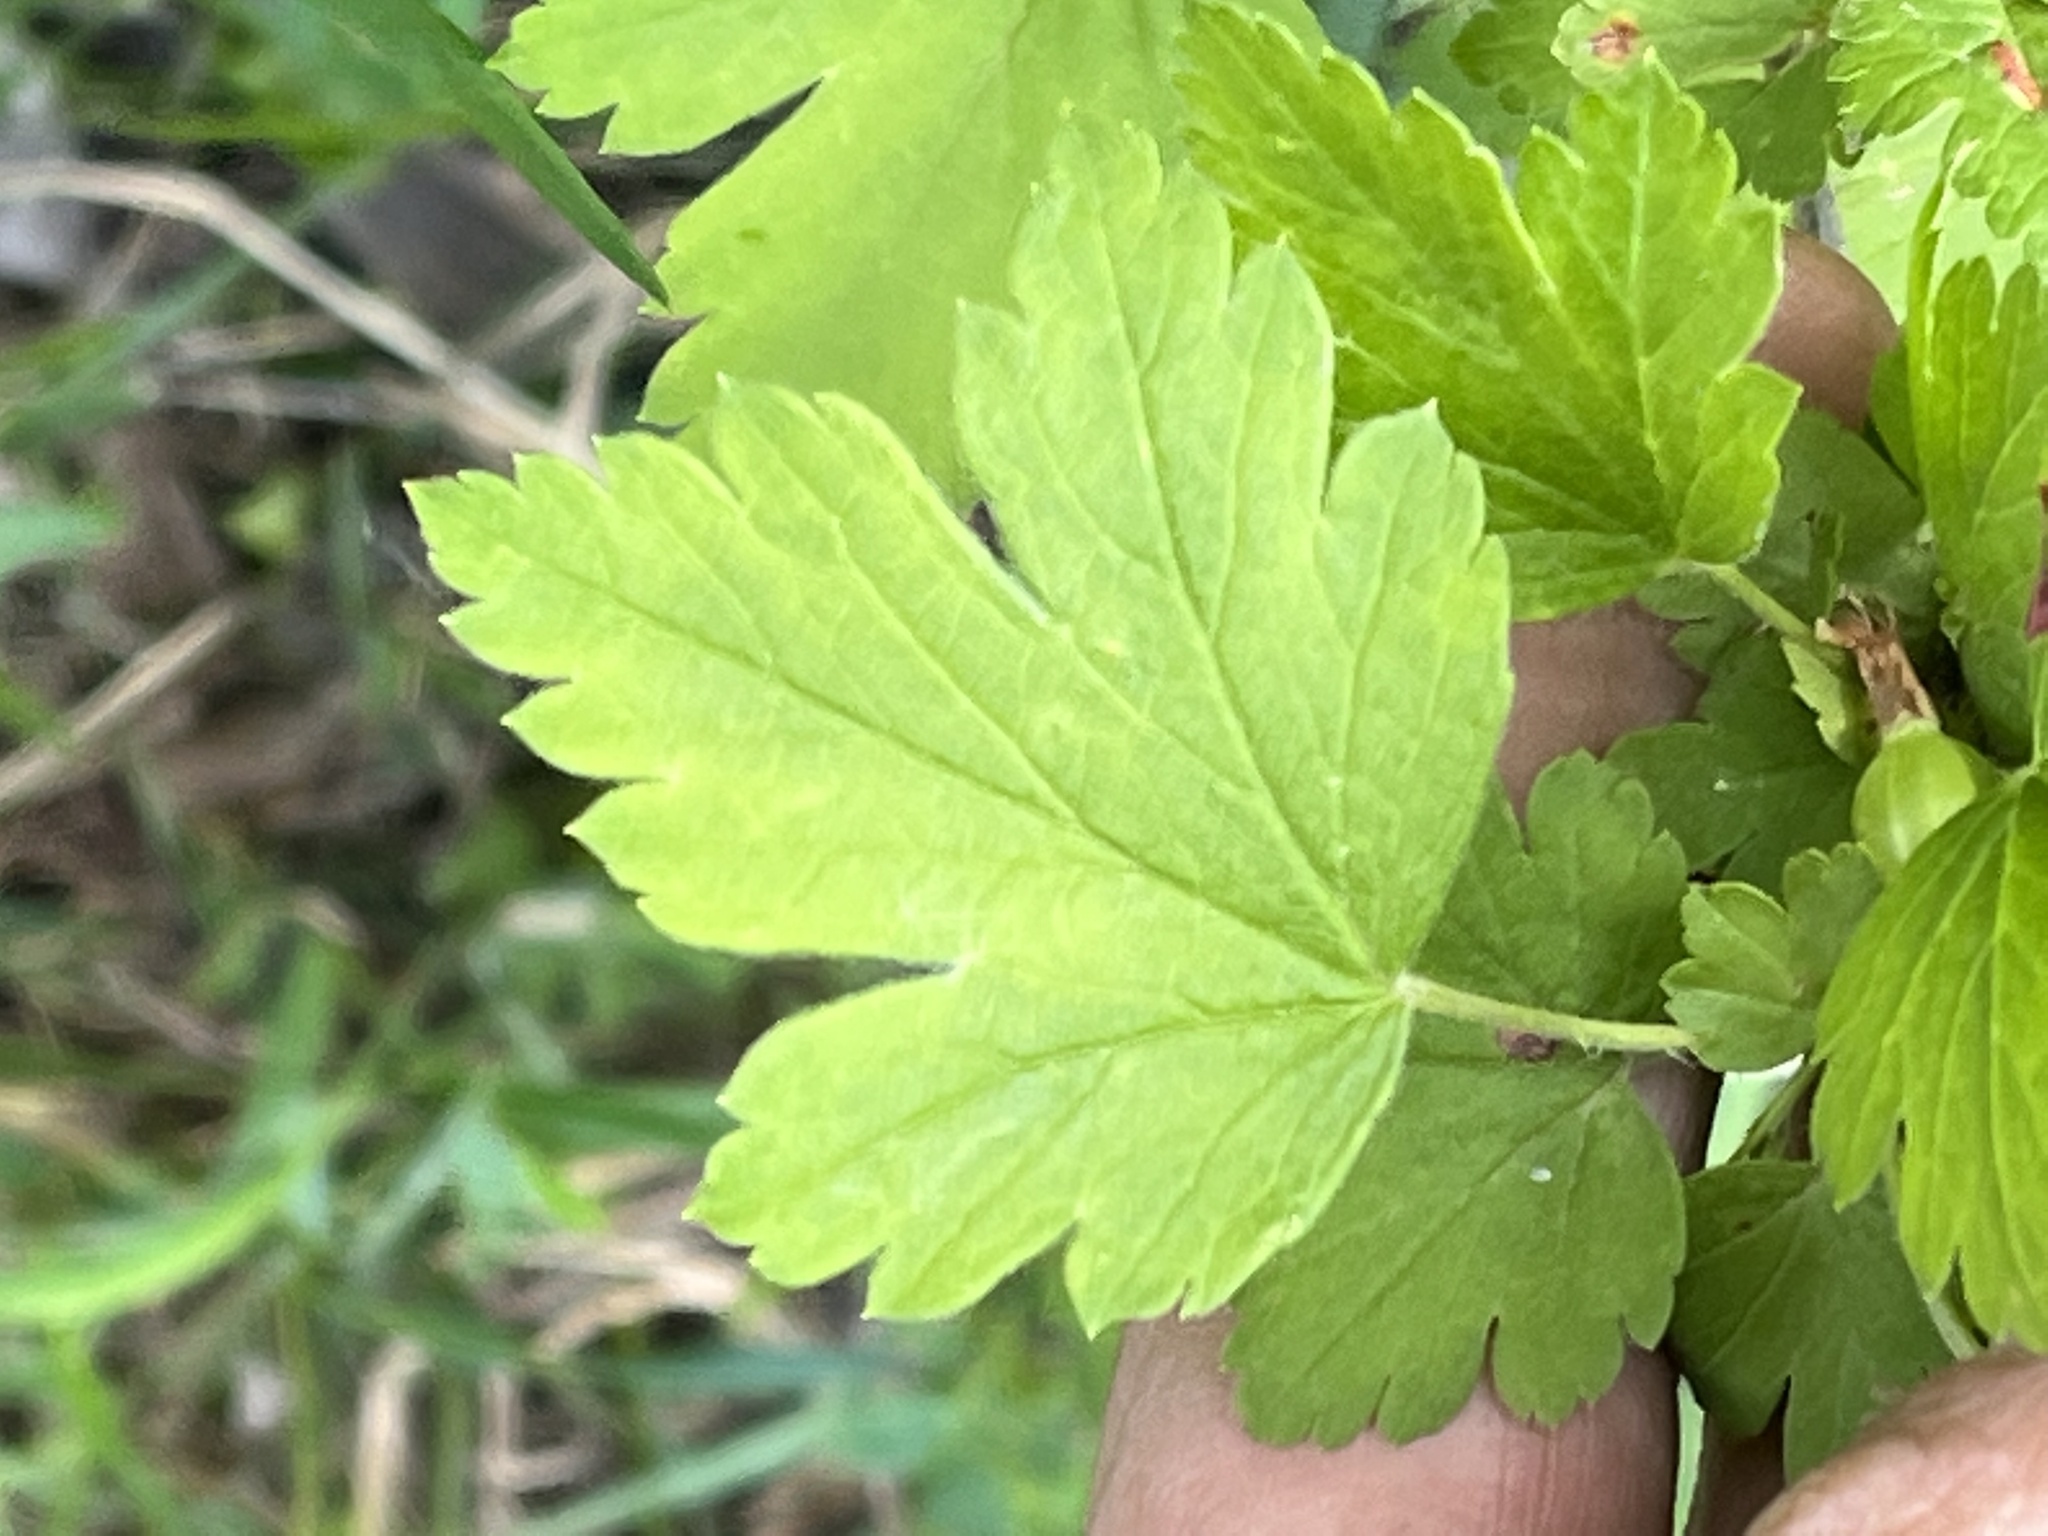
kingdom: Plantae
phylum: Tracheophyta
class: Magnoliopsida
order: Saxifragales
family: Grossulariaceae
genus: Ribes
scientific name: Ribes hirtellum
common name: Hairy gooseberry
